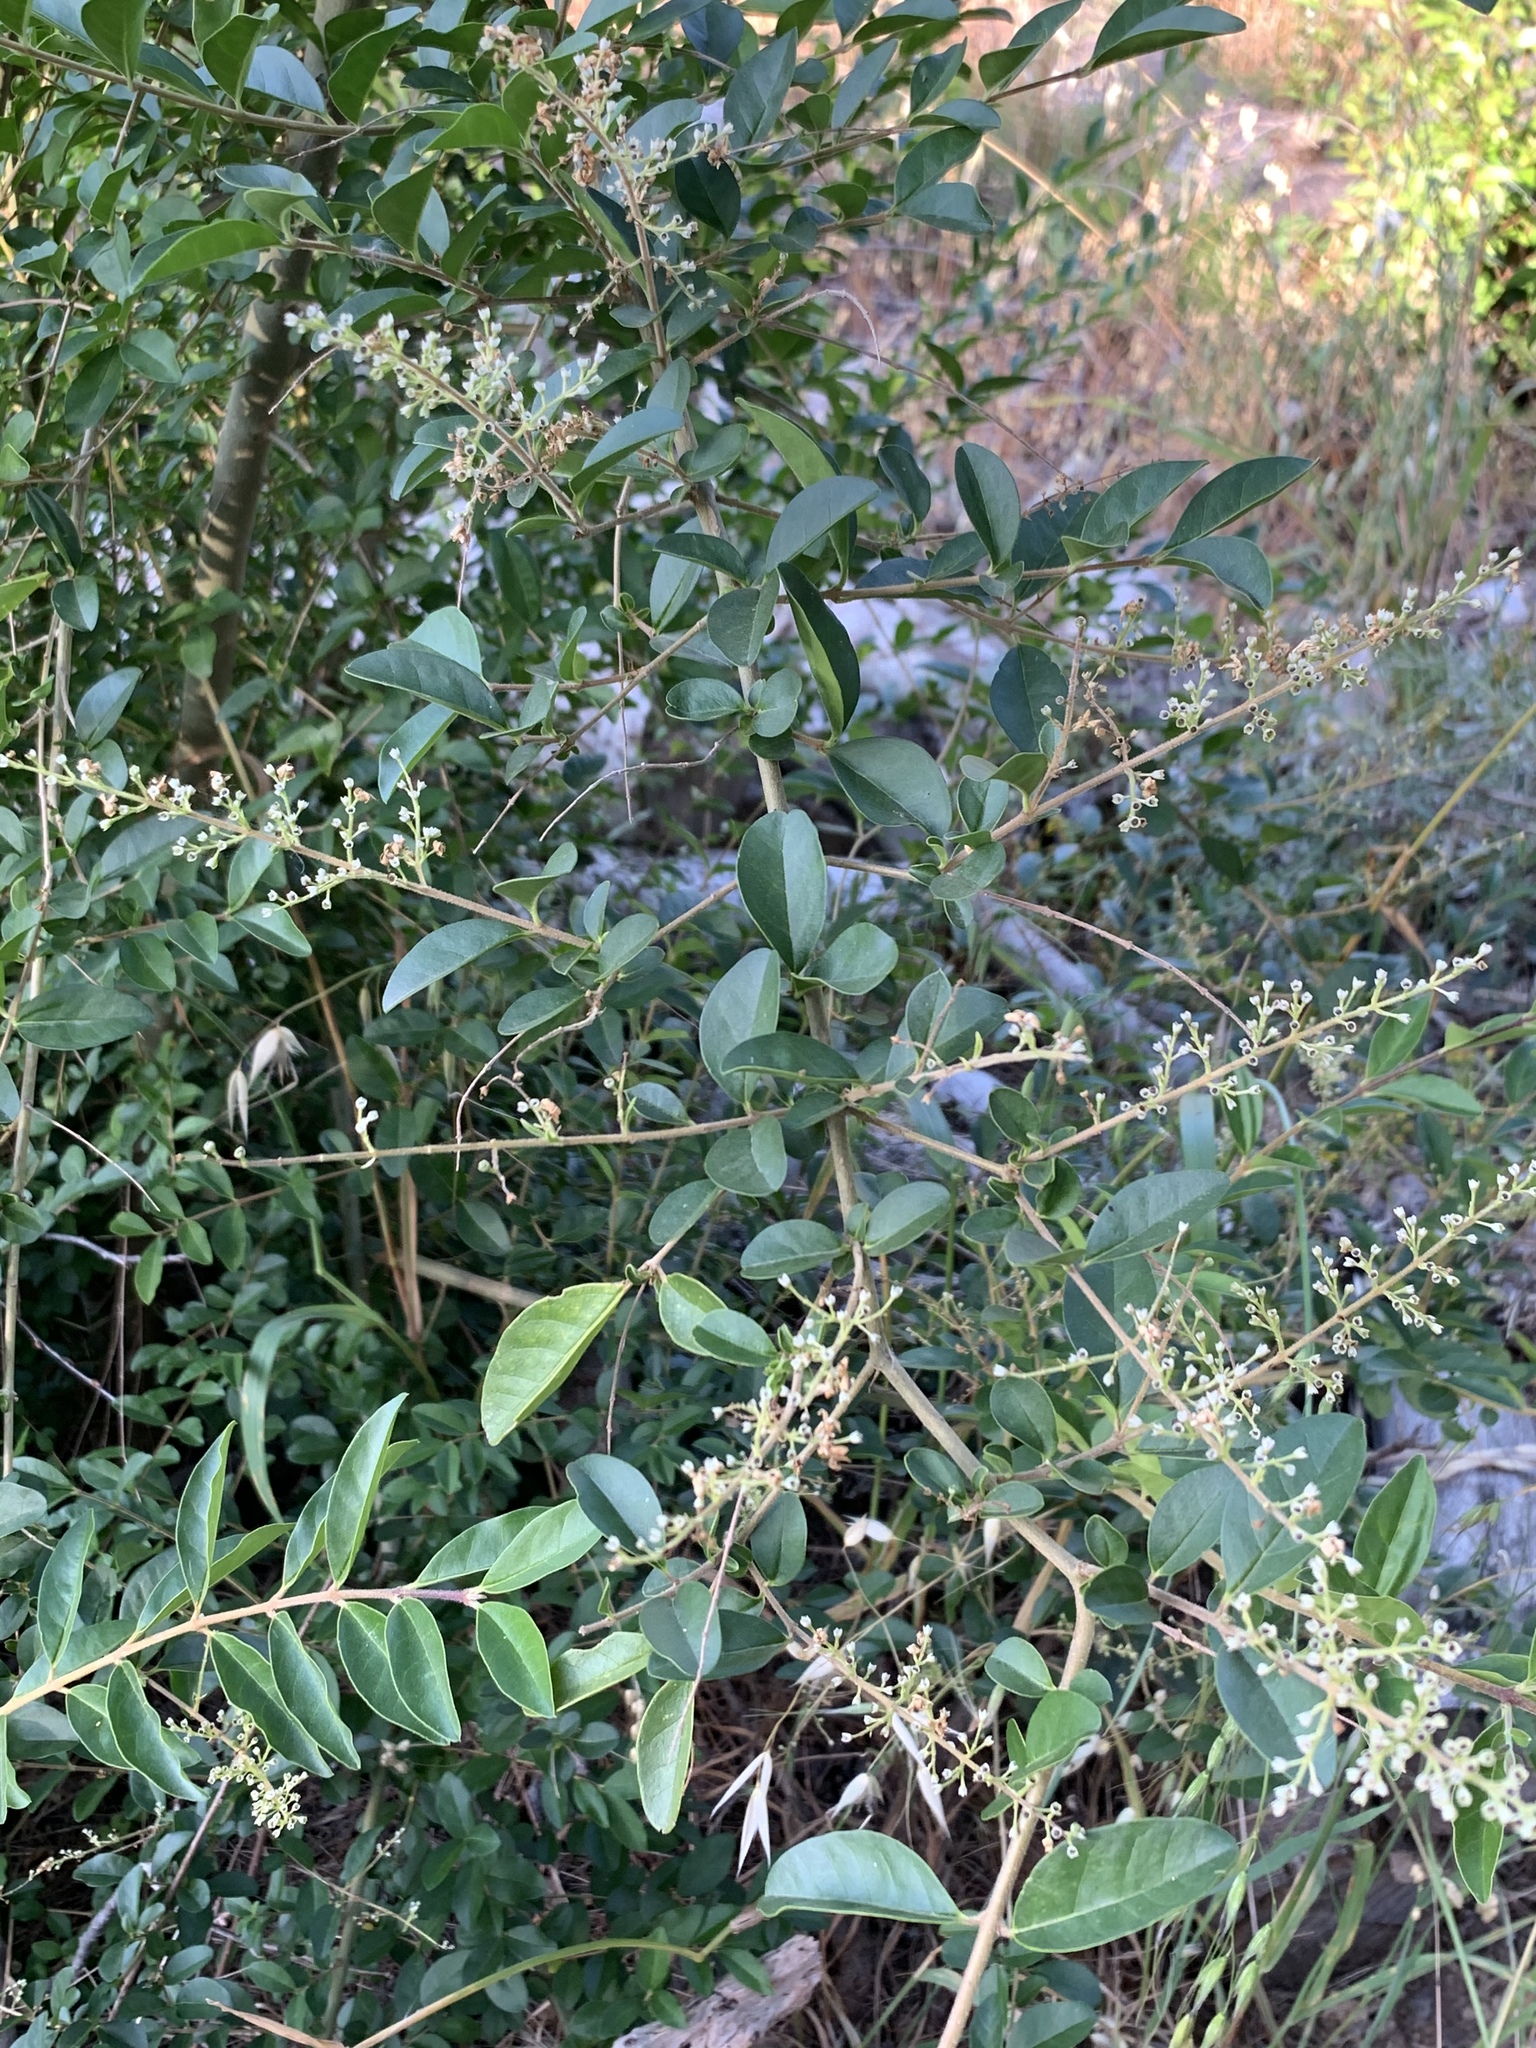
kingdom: Plantae
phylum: Tracheophyta
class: Magnoliopsida
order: Lamiales
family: Oleaceae
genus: Ligustrum
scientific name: Ligustrum sinense
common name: Chinese privet
